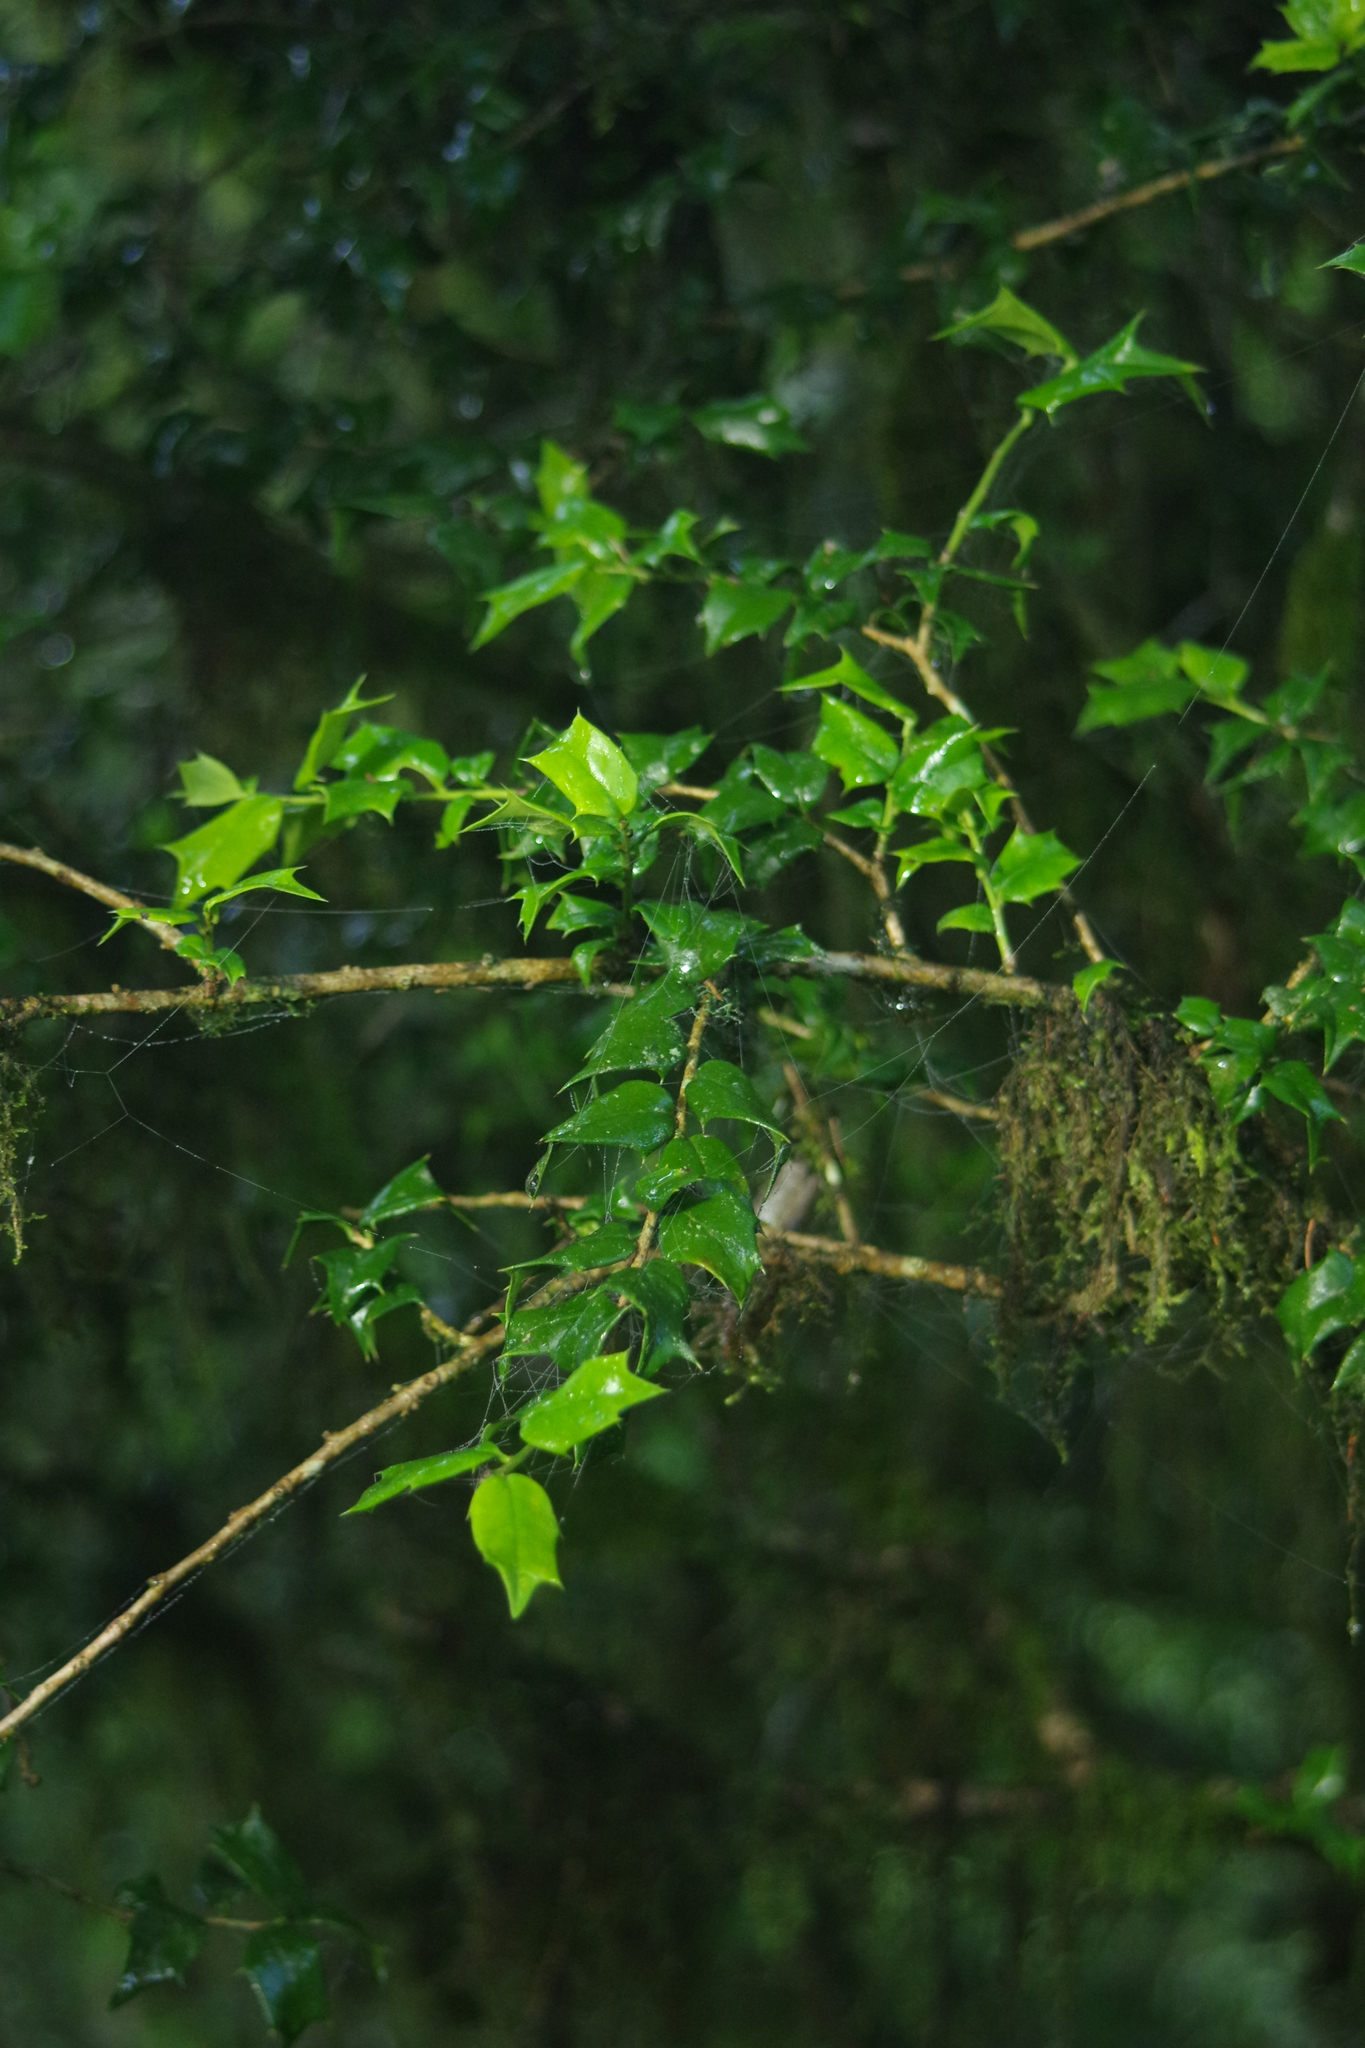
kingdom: Plantae
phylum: Tracheophyta
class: Magnoliopsida
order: Aquifoliales
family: Aquifoliaceae
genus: Ilex
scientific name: Ilex bioritsensis
